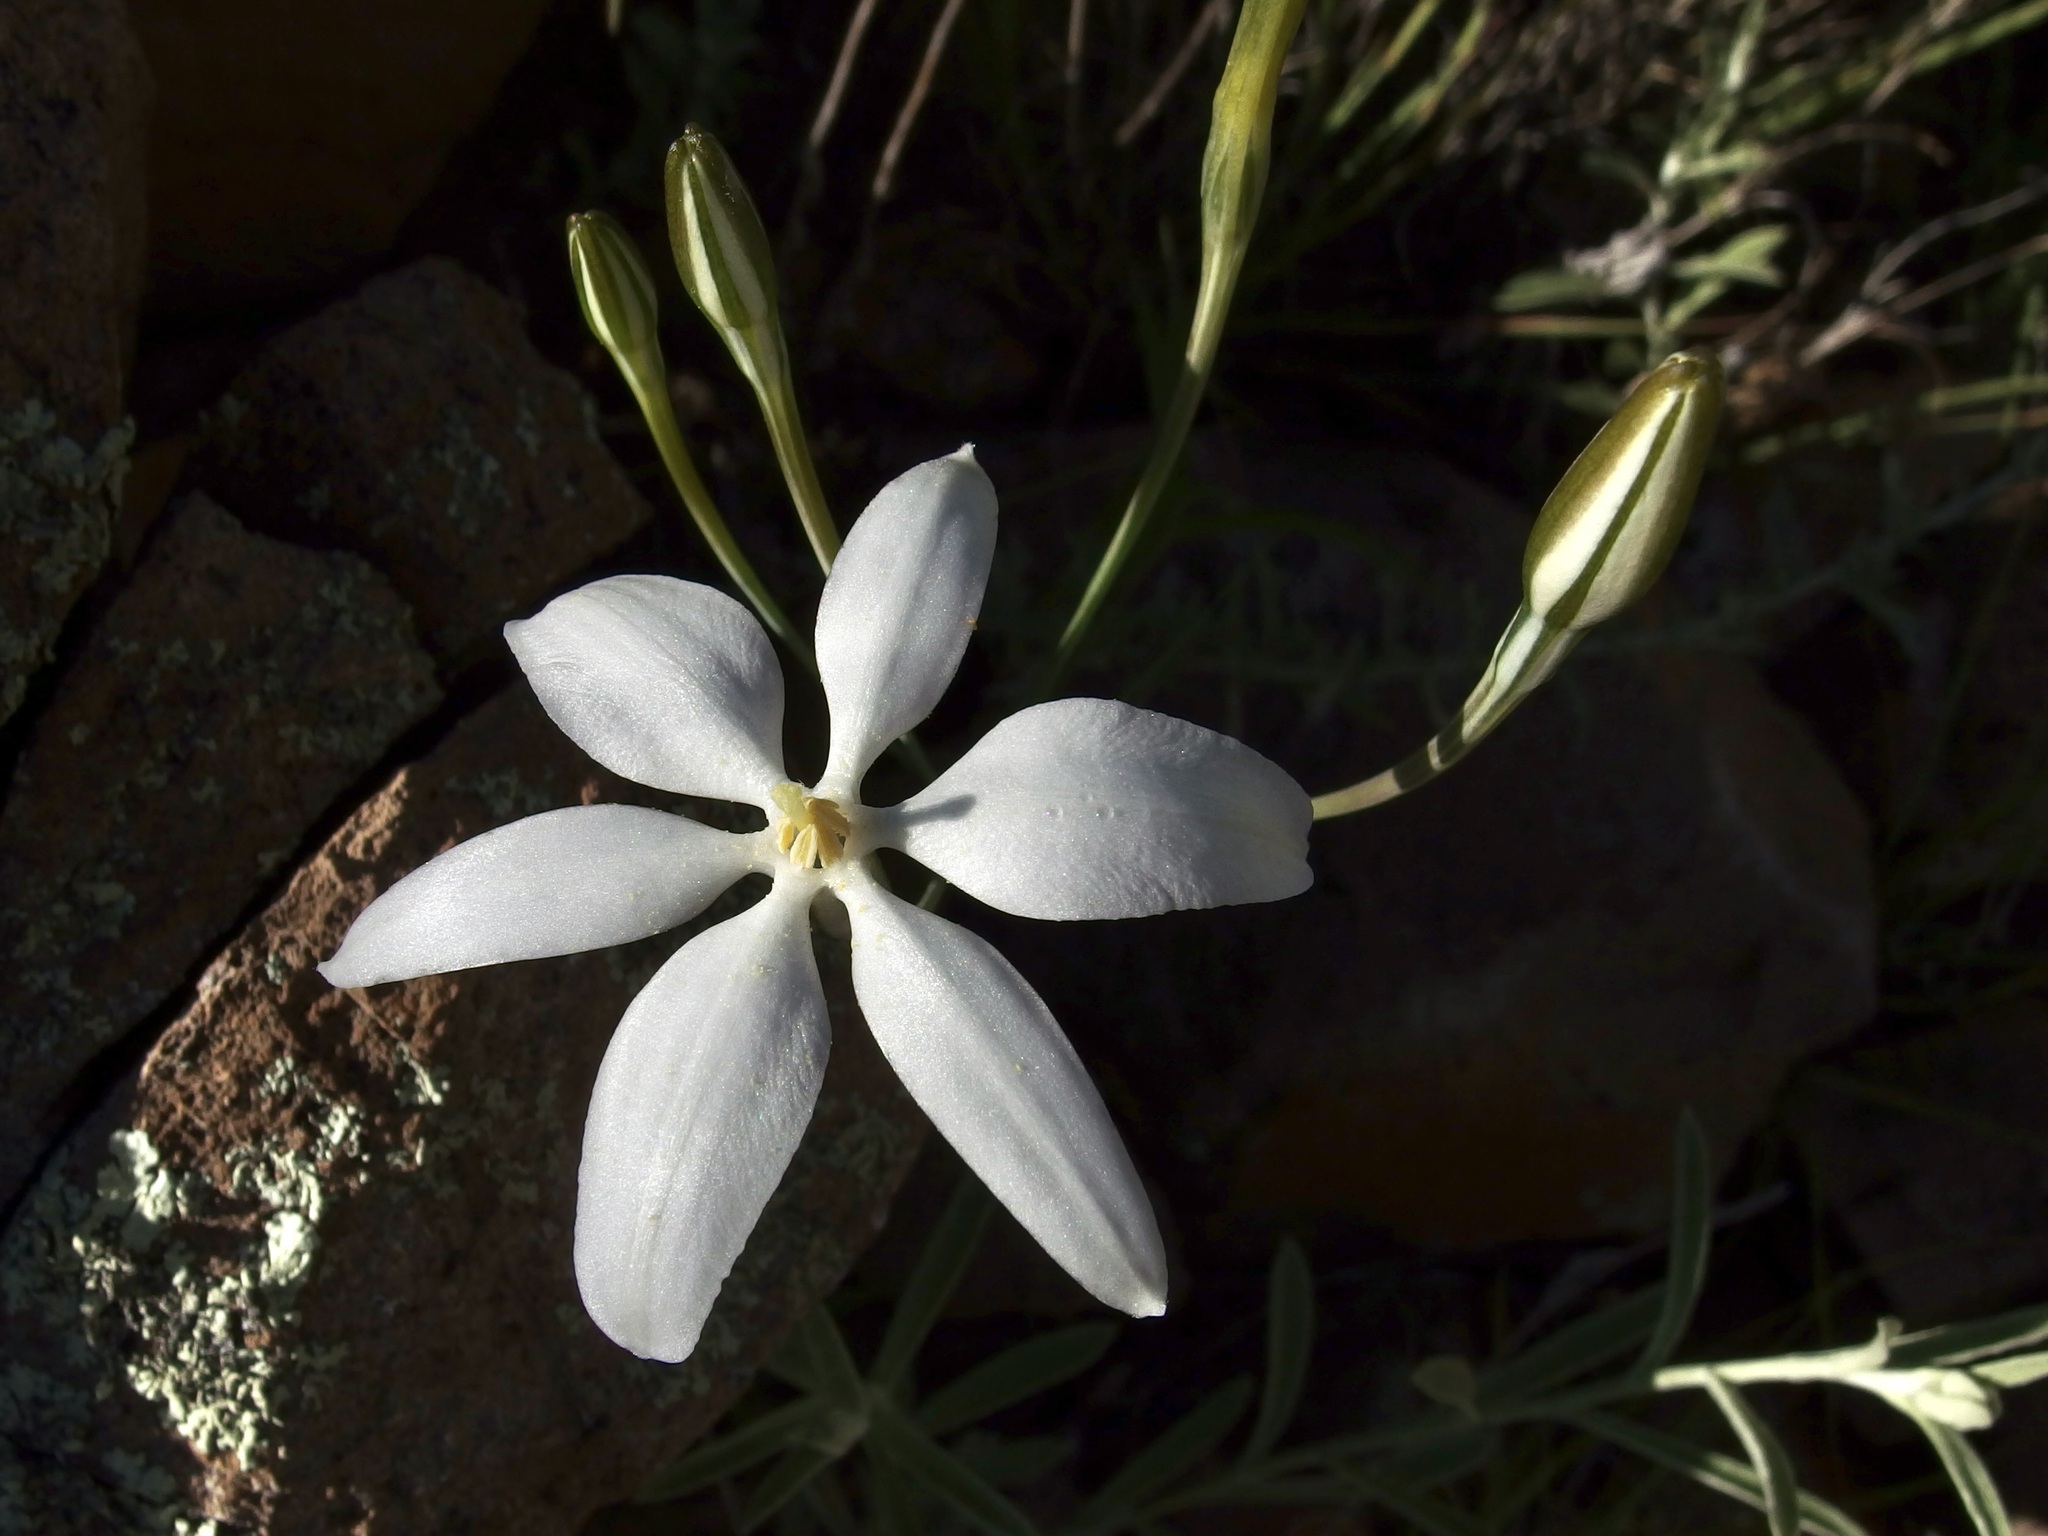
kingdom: Plantae
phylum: Tracheophyta
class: Liliopsida
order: Asparagales
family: Asparagaceae
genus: Milla
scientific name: Milla biflora
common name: Mexican-star
